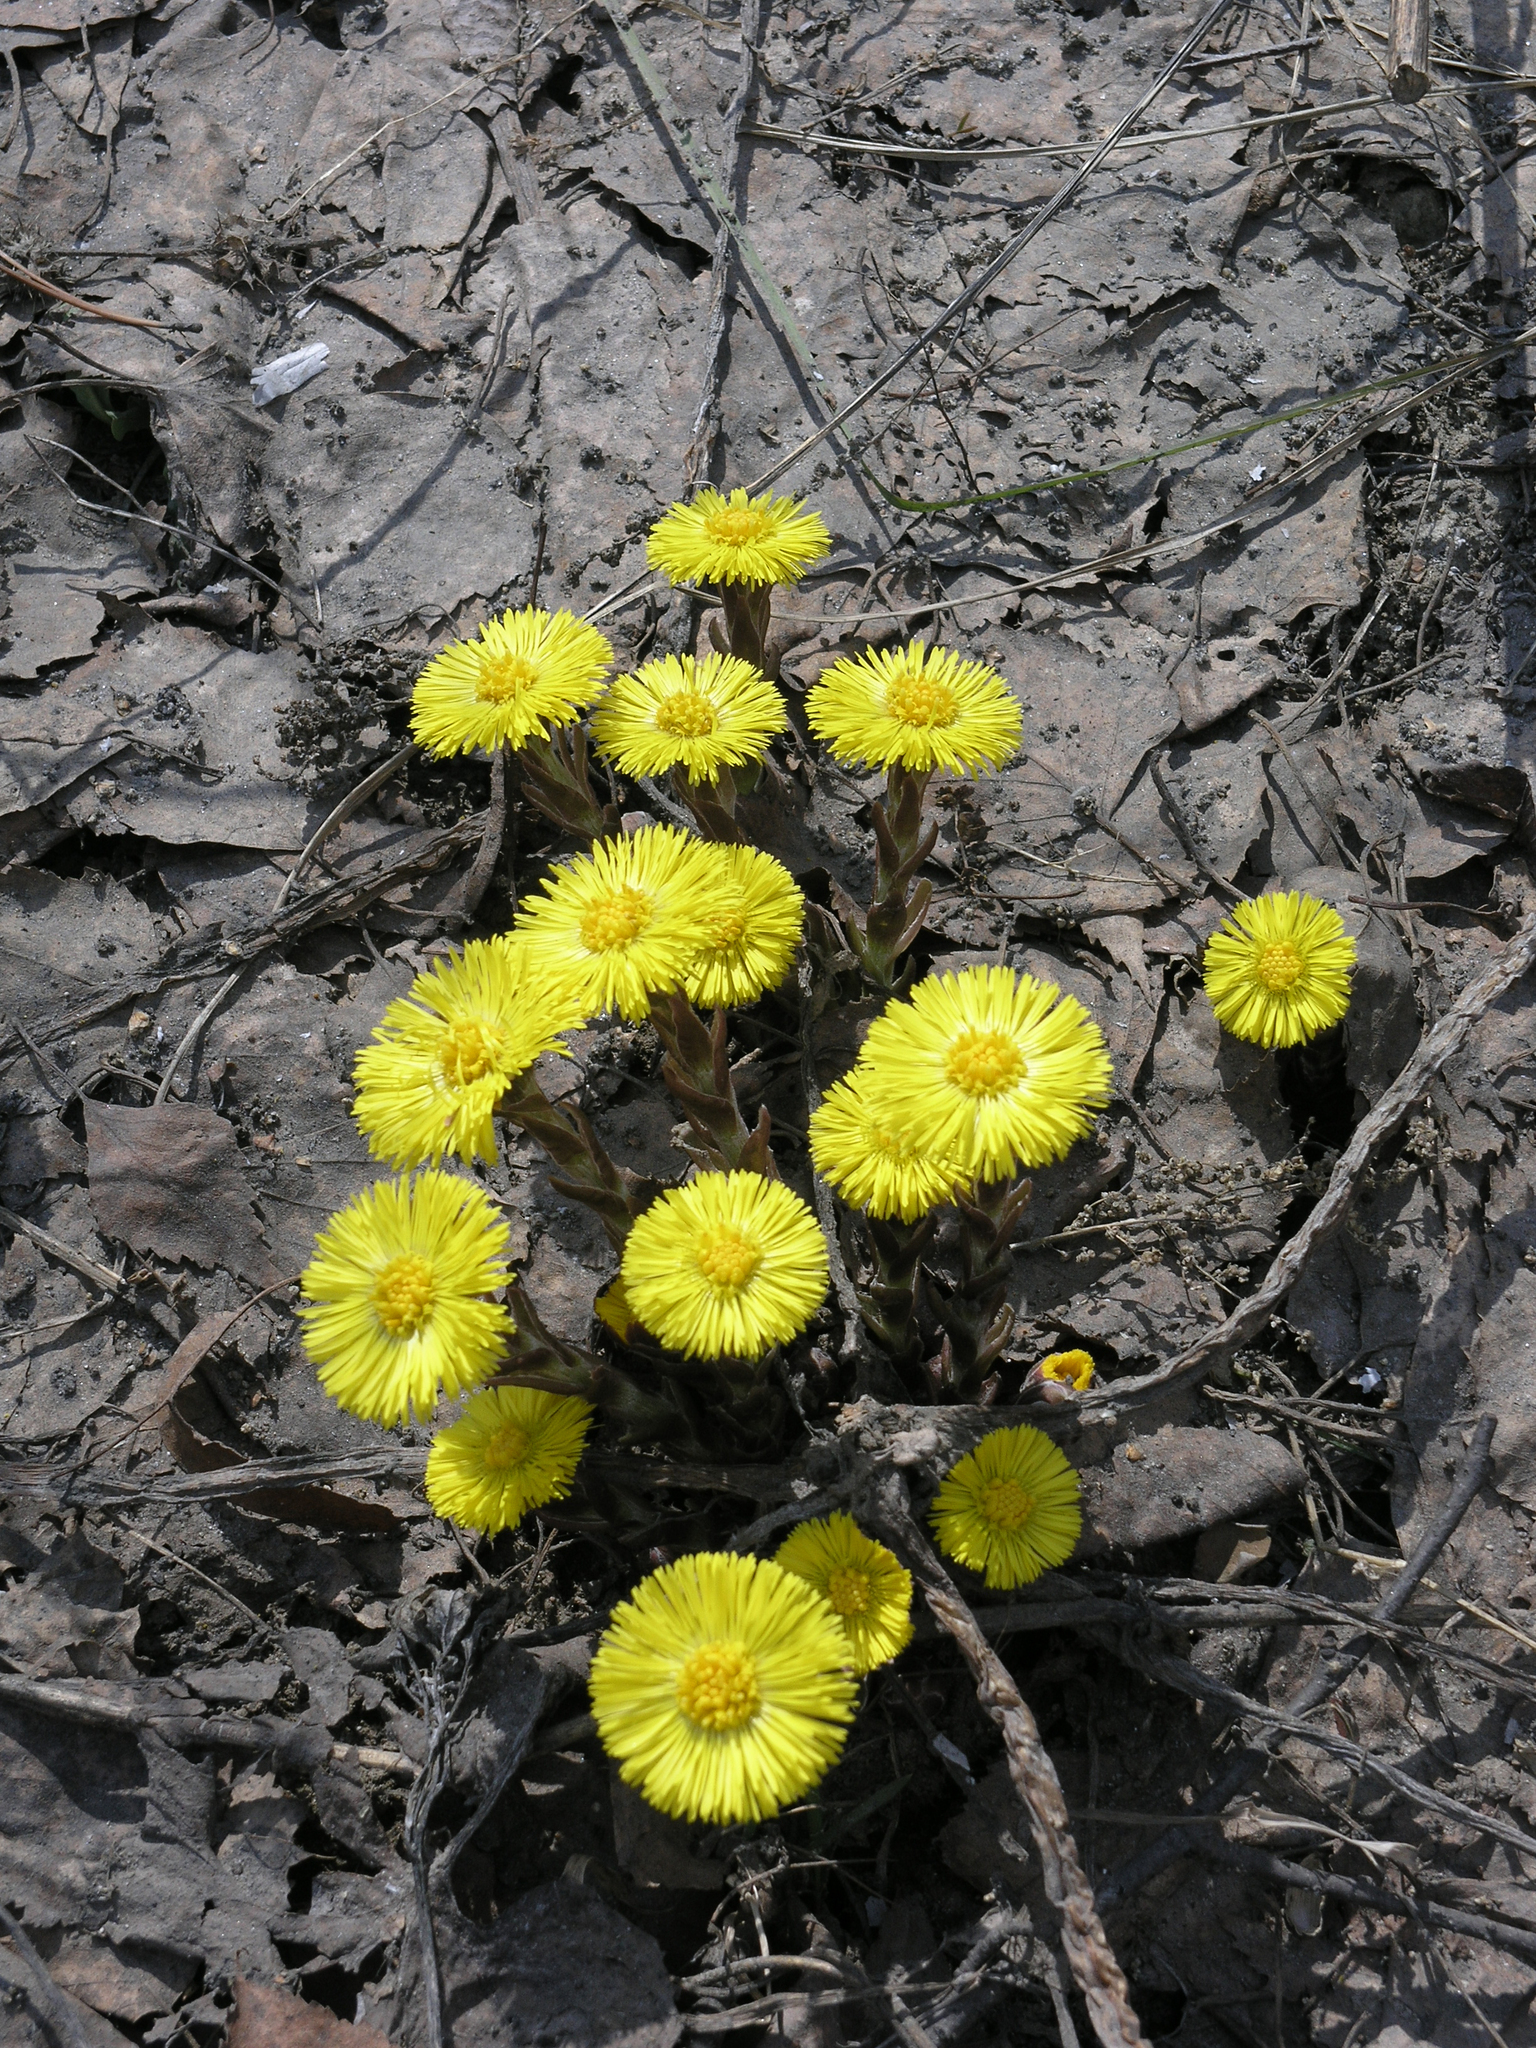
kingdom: Plantae
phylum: Tracheophyta
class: Magnoliopsida
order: Asterales
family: Asteraceae
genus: Tussilago
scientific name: Tussilago farfara
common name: Coltsfoot
